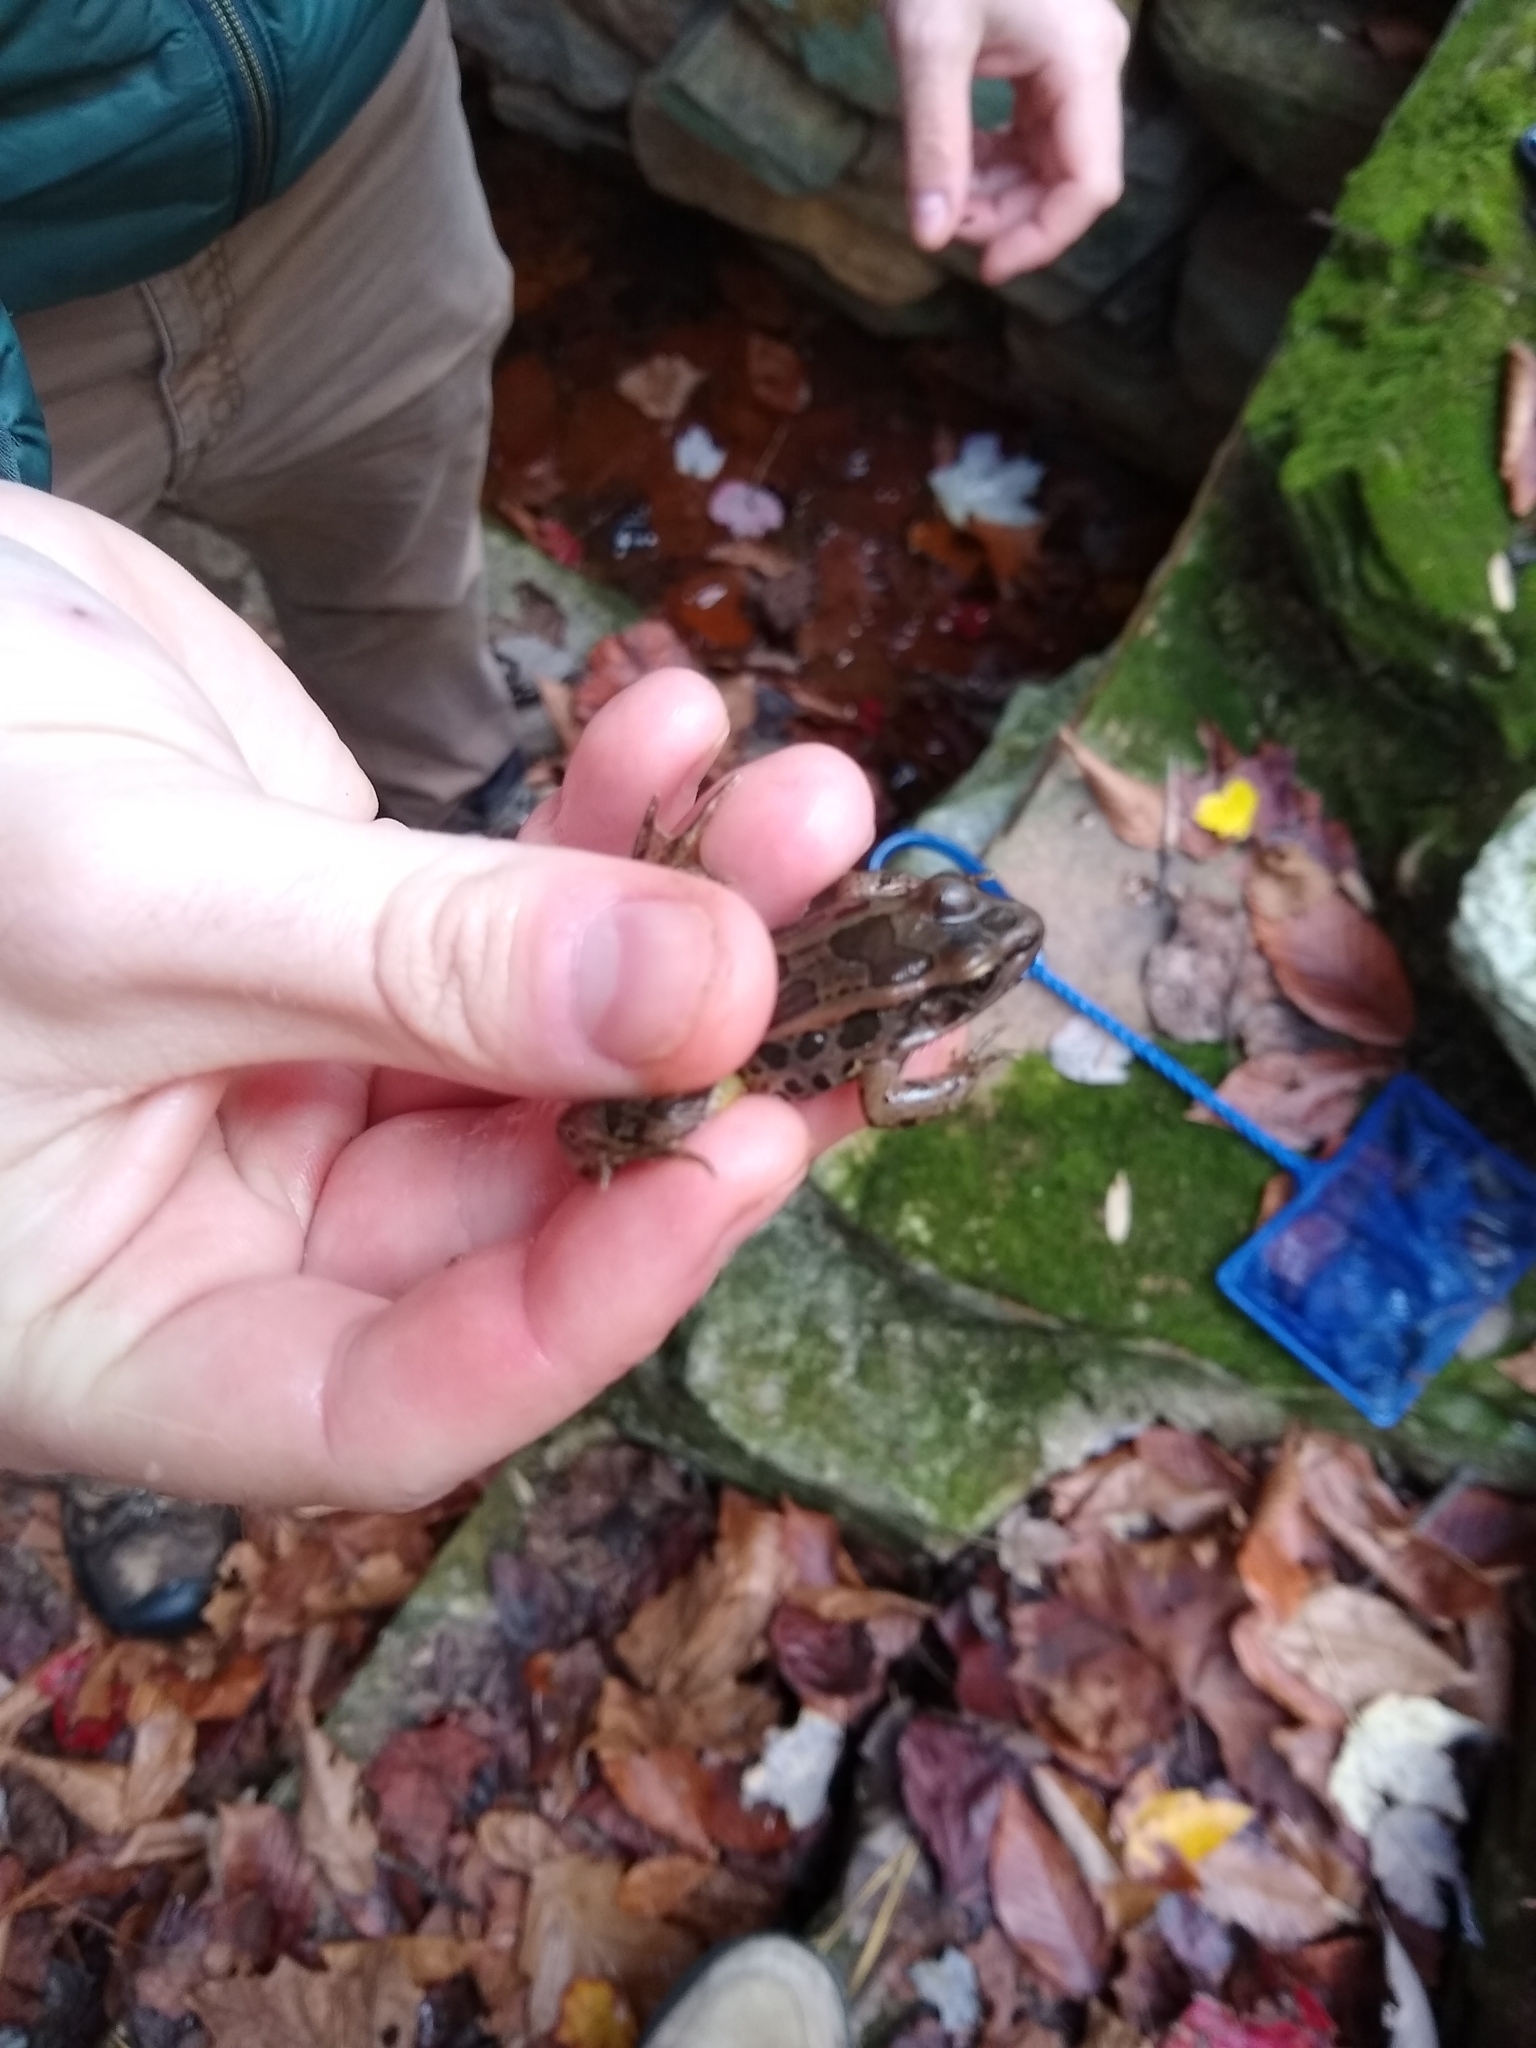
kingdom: Animalia
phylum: Chordata
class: Amphibia
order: Anura
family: Ranidae
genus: Lithobates
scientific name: Lithobates palustris
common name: Pickerel frog
